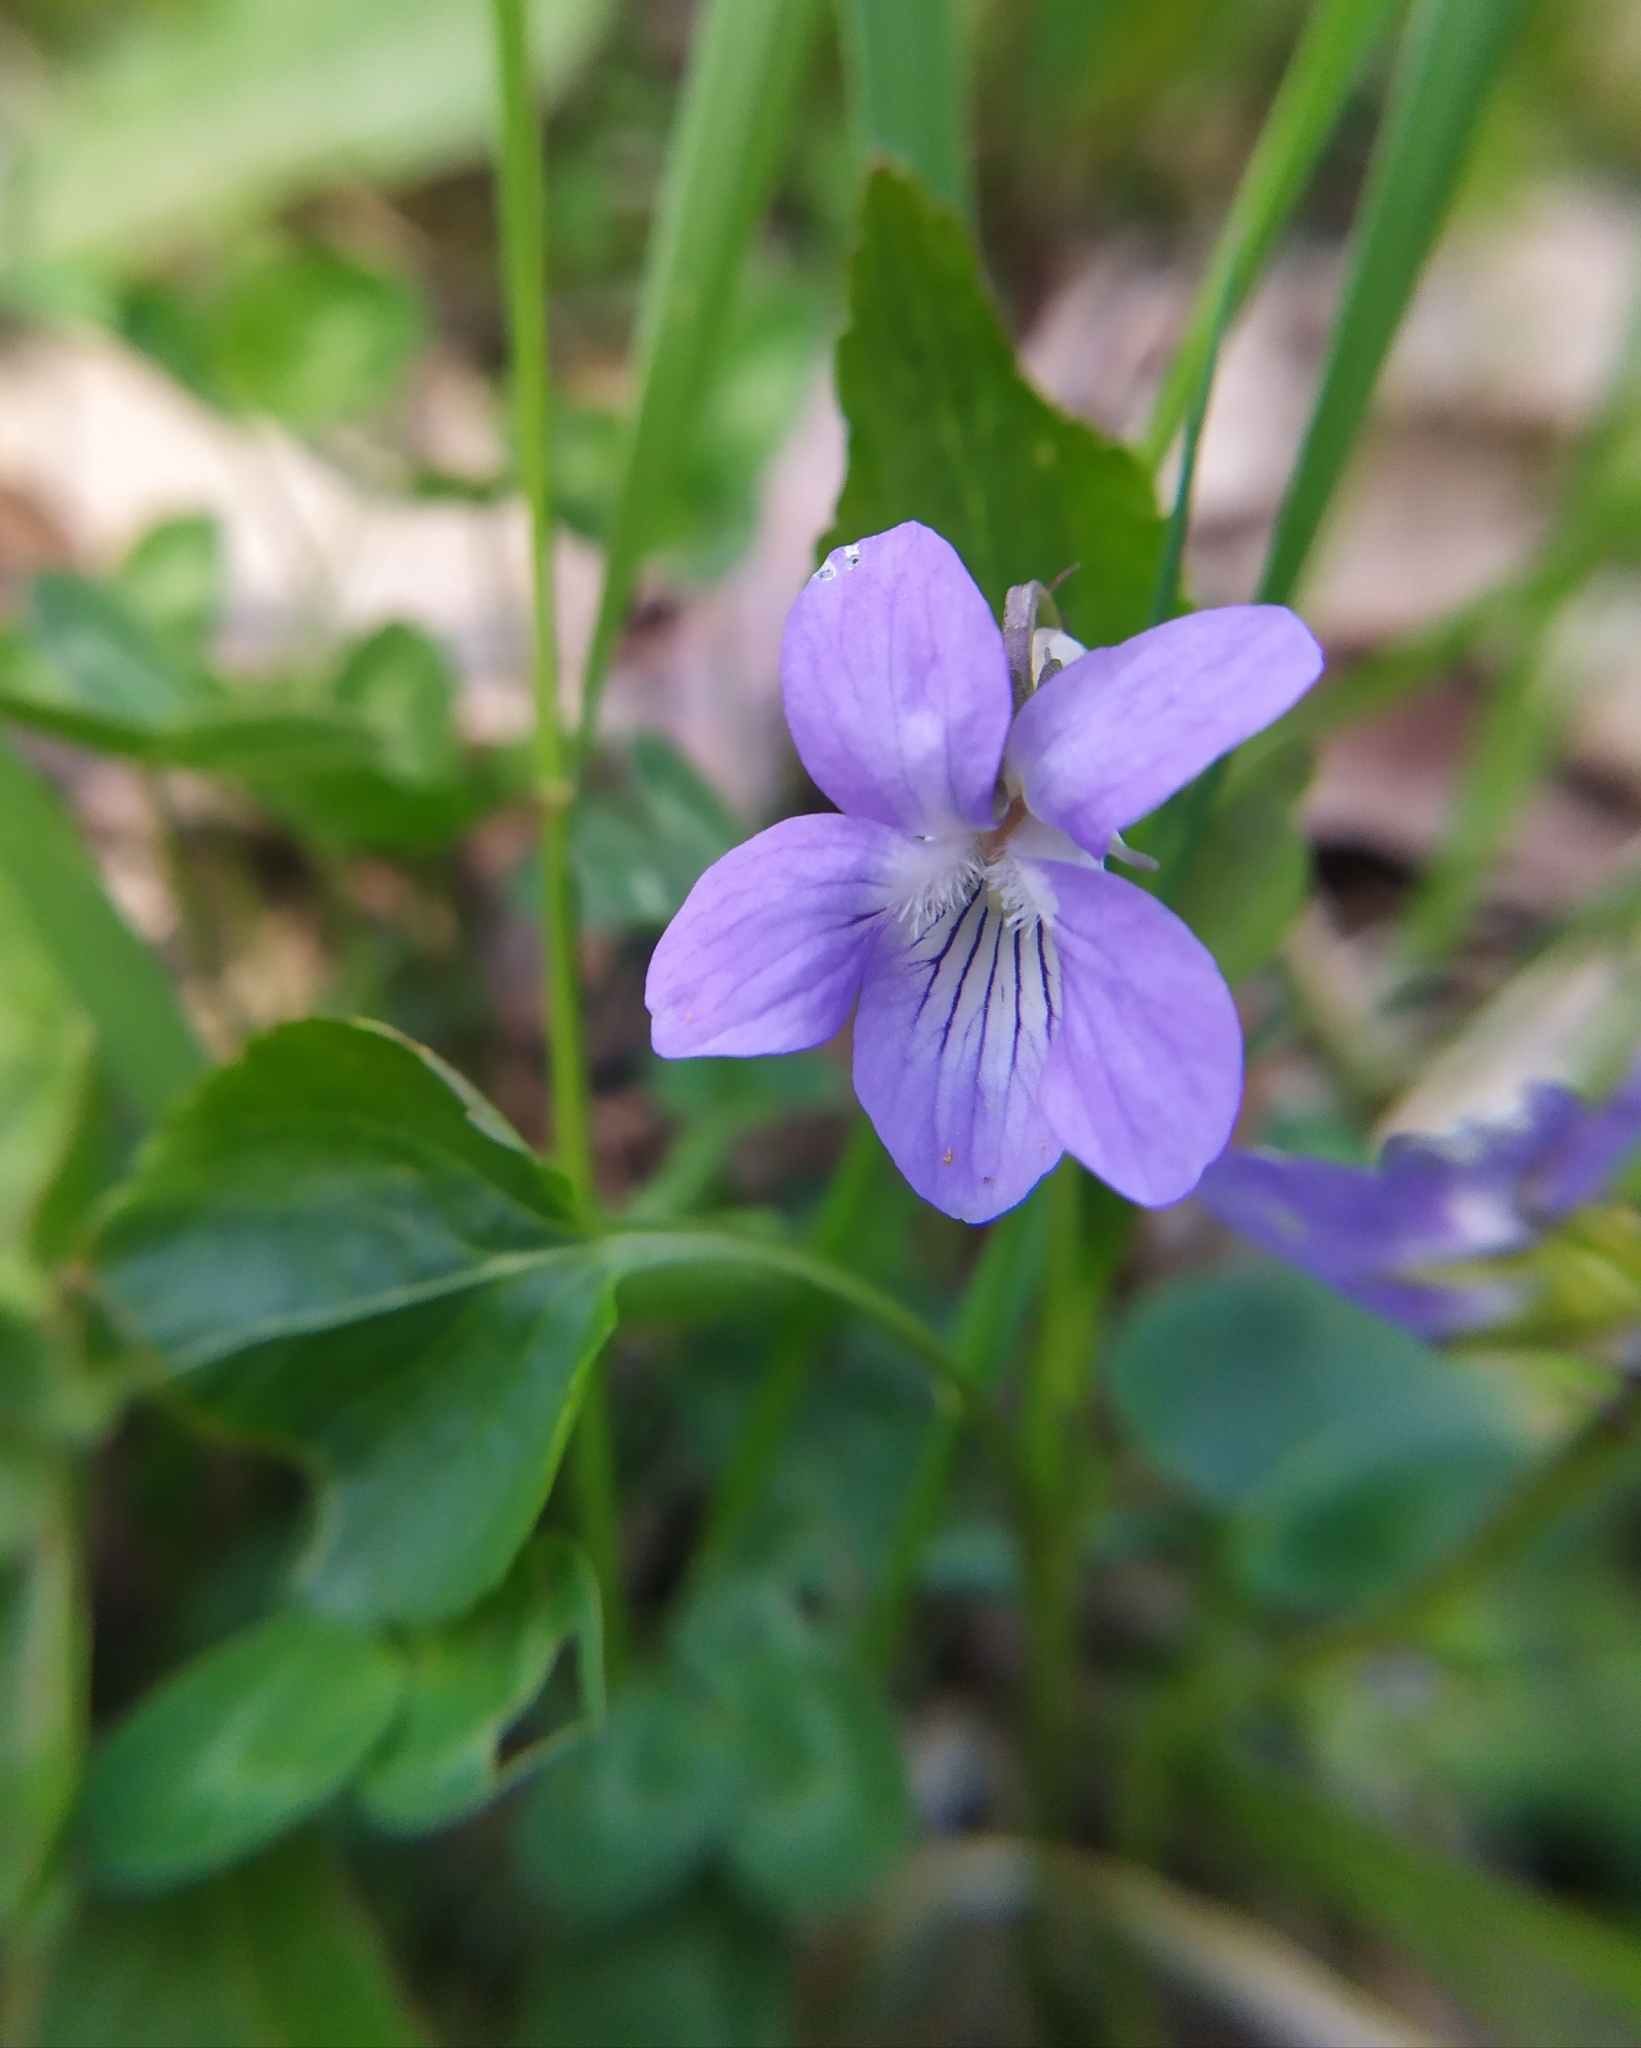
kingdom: Plantae
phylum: Tracheophyta
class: Magnoliopsida
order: Malpighiales
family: Violaceae
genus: Viola
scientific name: Viola bavarica
